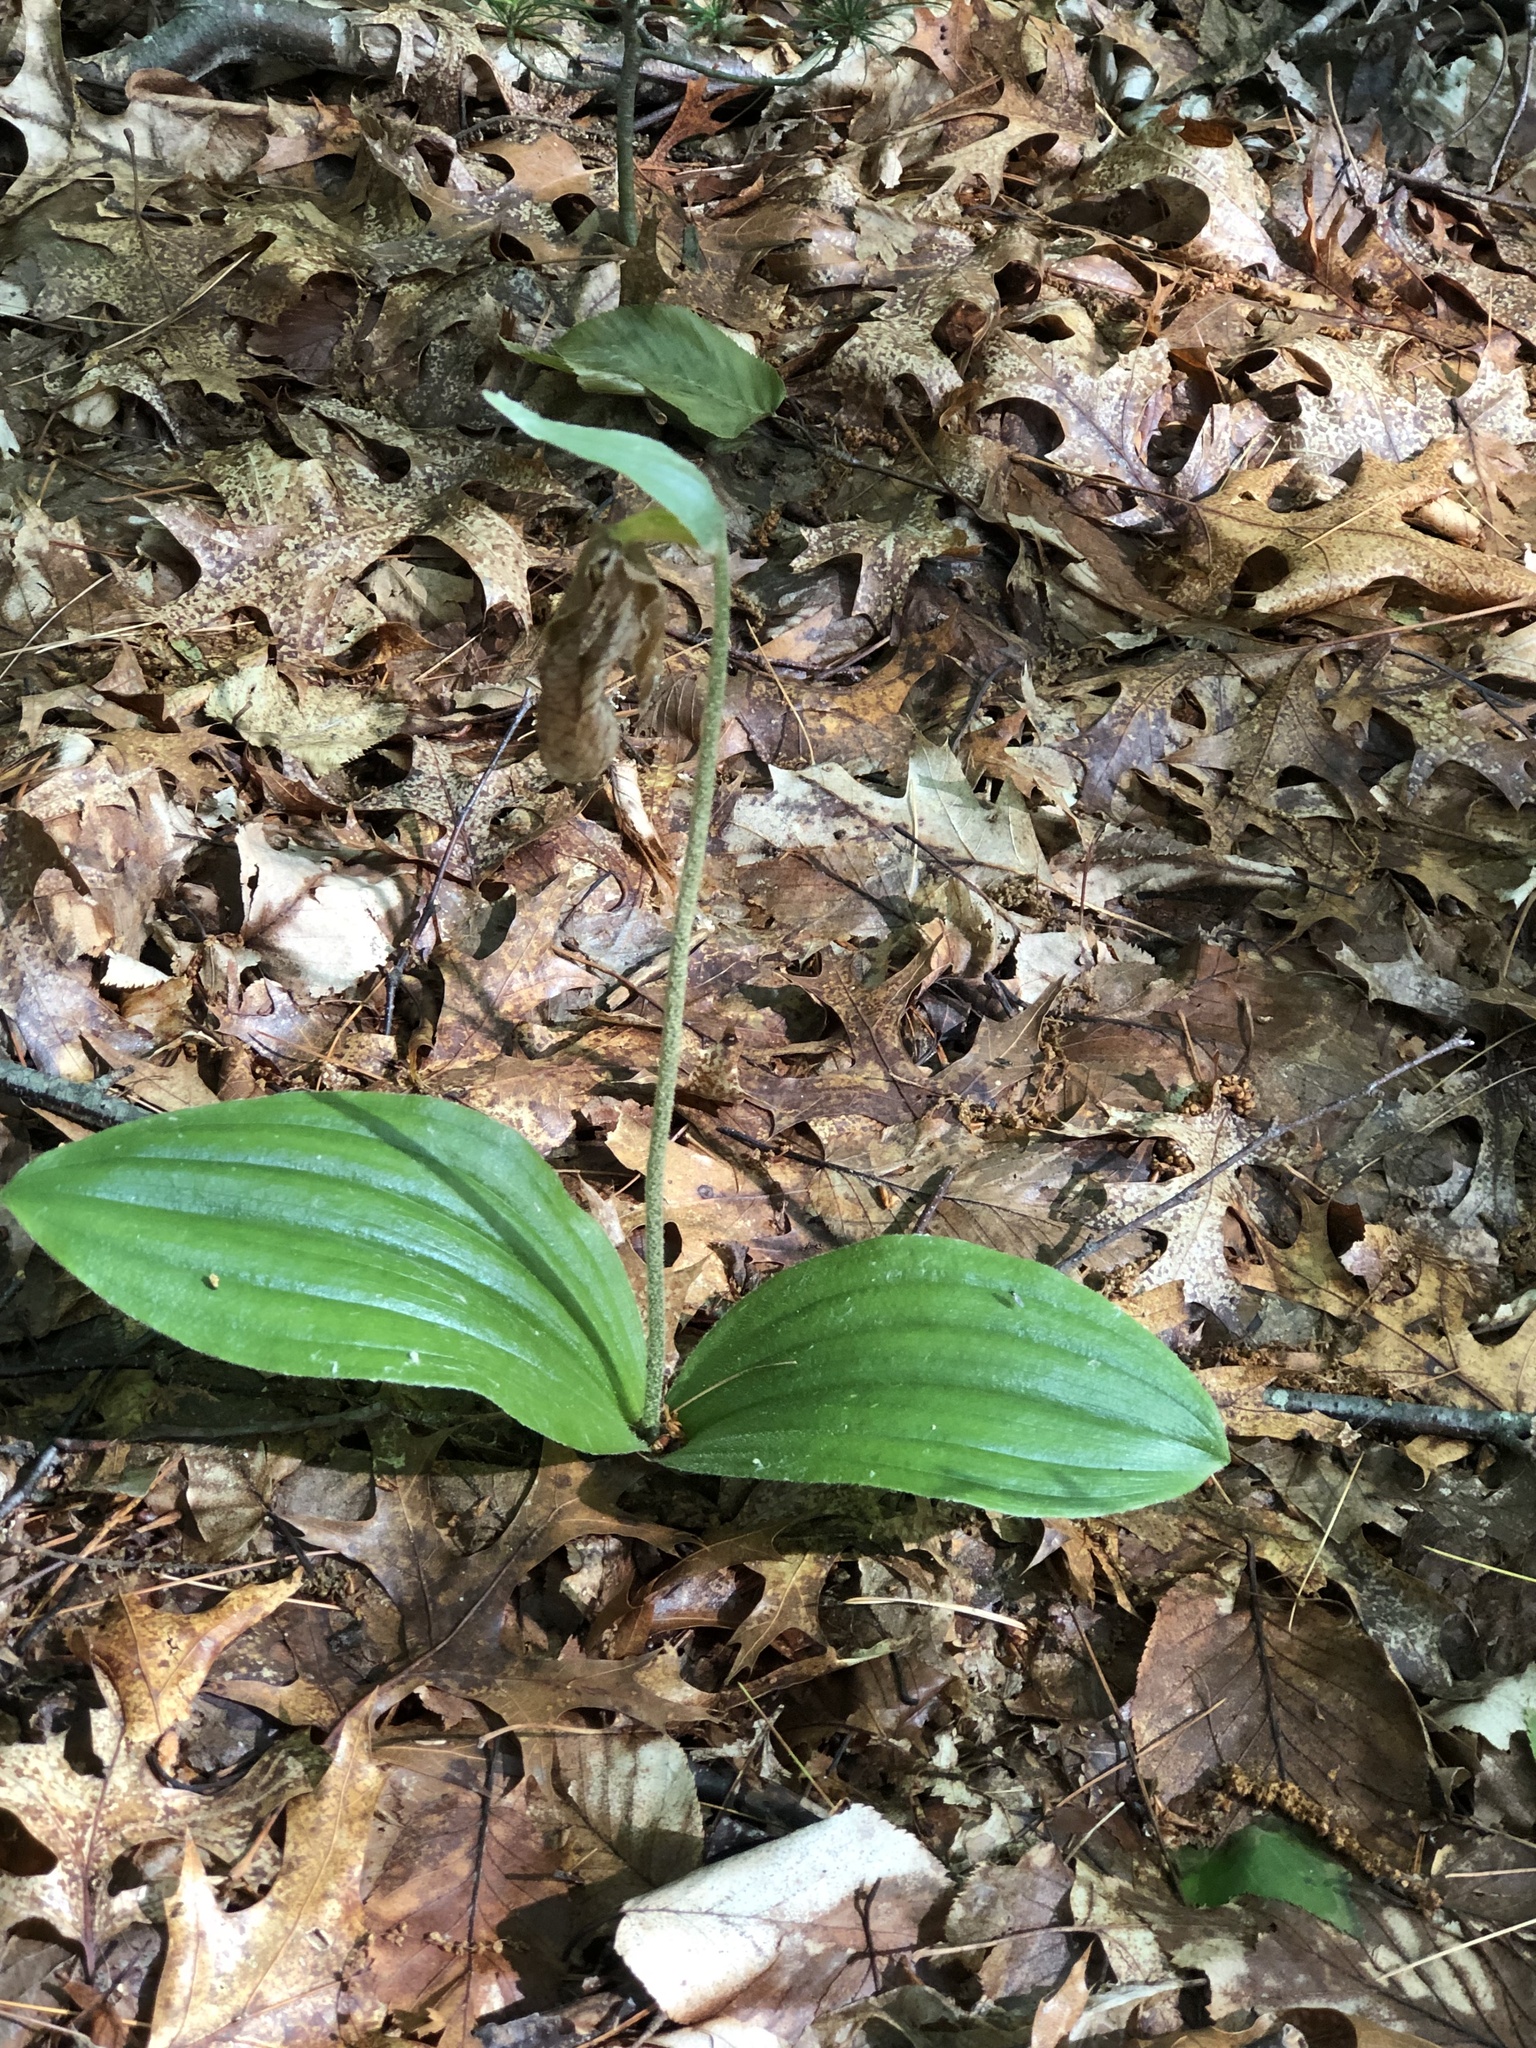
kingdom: Plantae
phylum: Tracheophyta
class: Liliopsida
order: Asparagales
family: Orchidaceae
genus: Cypripedium
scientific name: Cypripedium acaule
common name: Pink lady's-slipper
